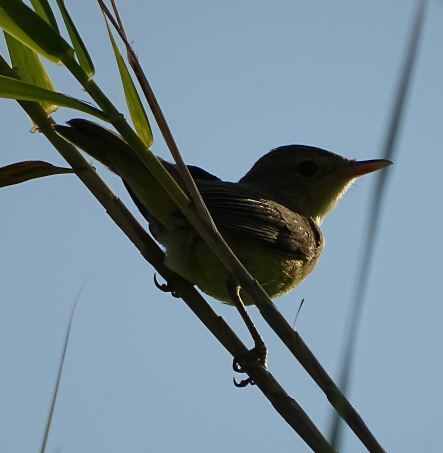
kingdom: Animalia
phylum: Chordata
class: Aves
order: Passeriformes
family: Acrocephalidae
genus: Hippolais
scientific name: Hippolais polyglotta
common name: Melodious warbler
